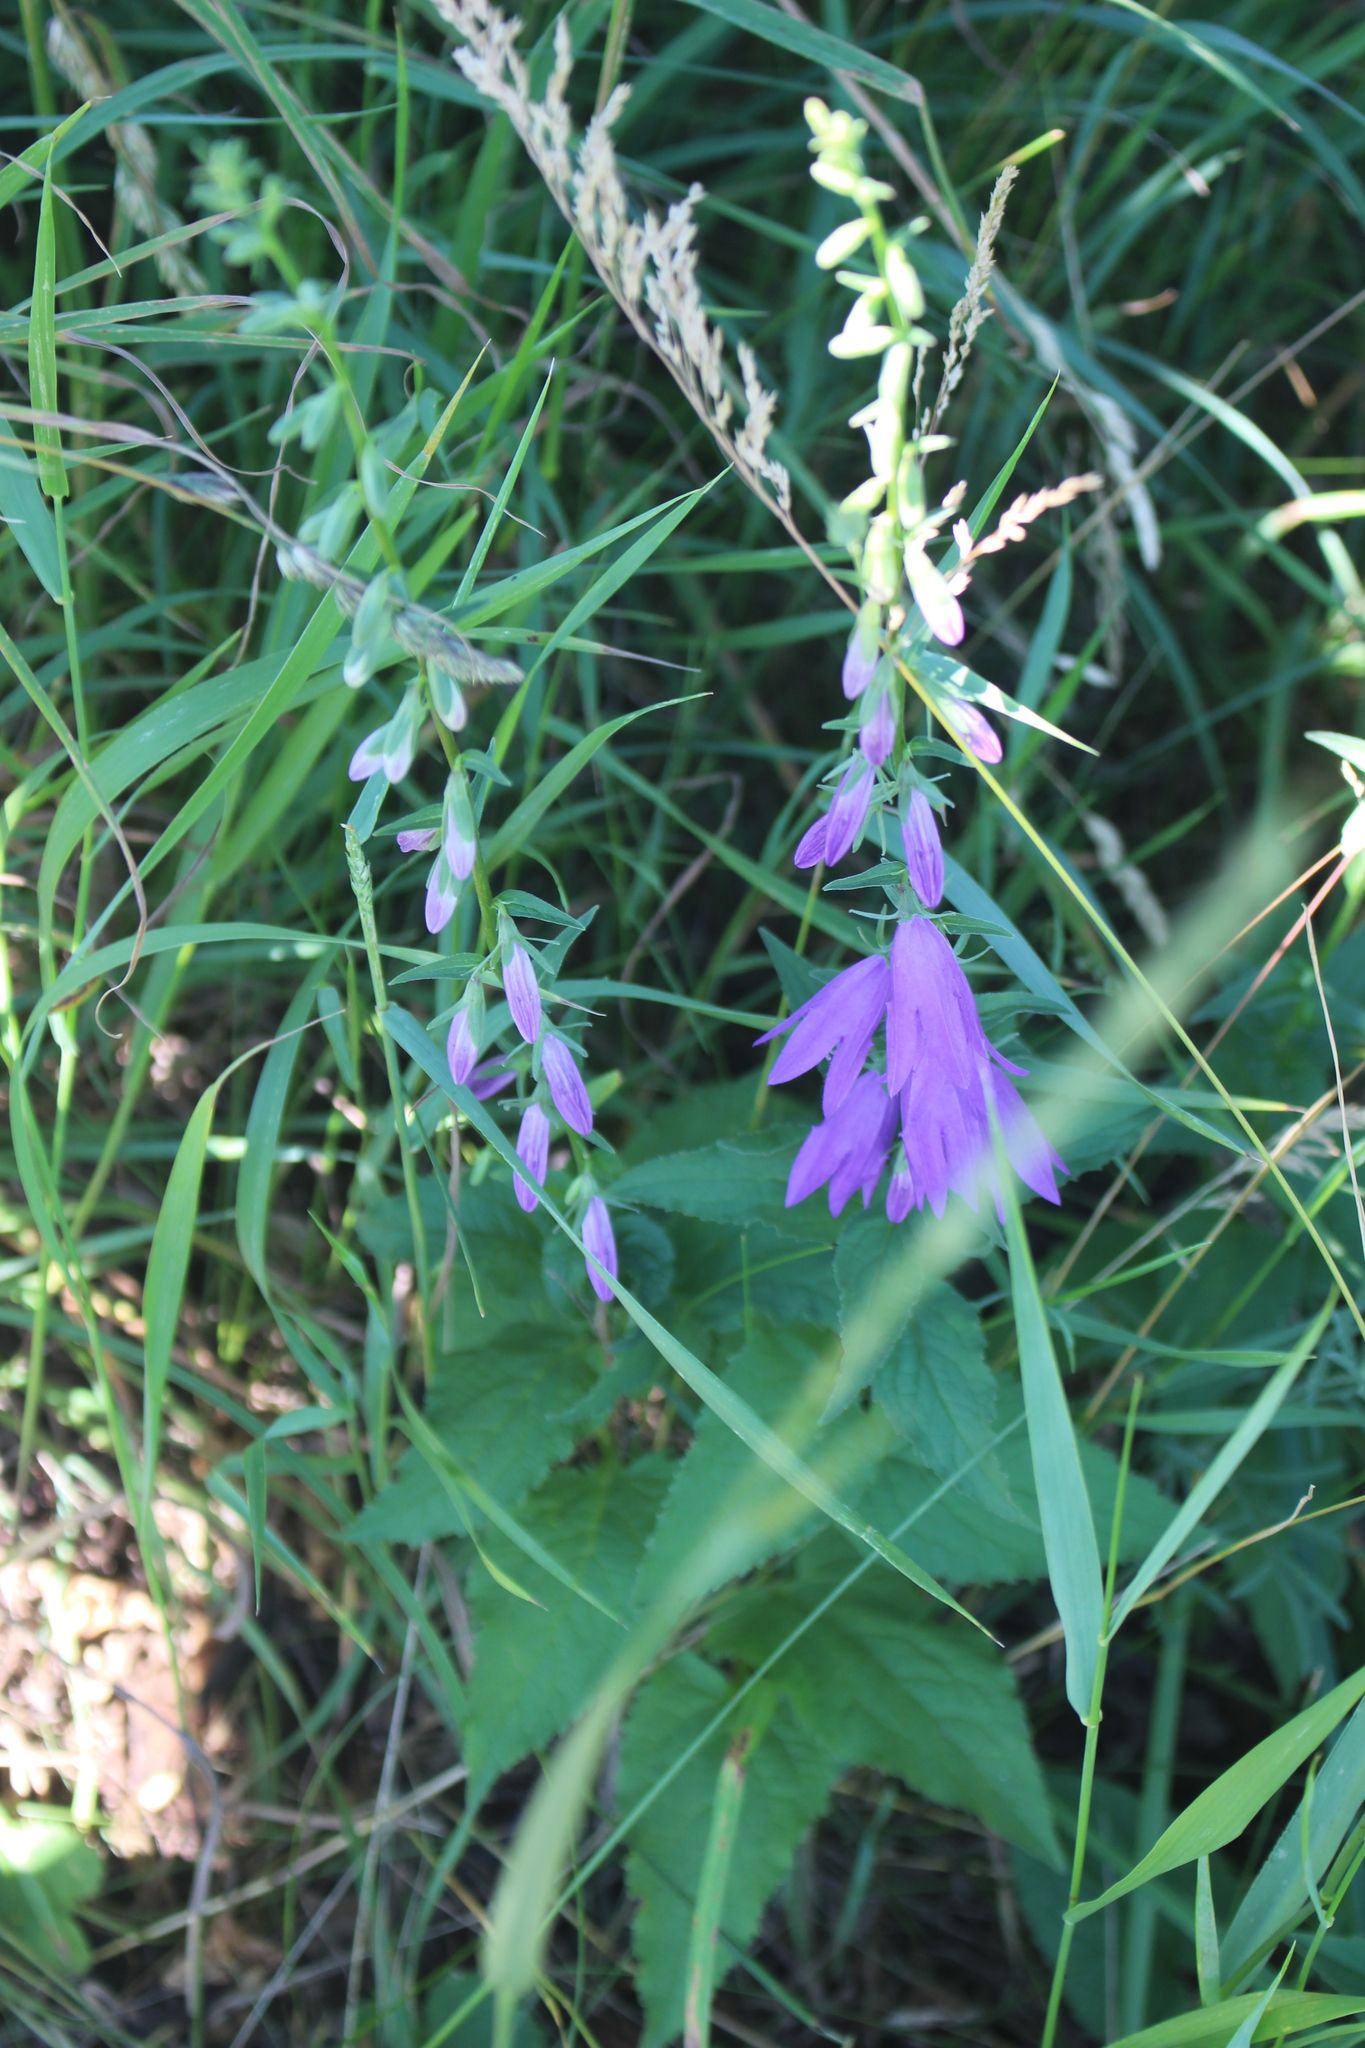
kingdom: Plantae
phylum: Tracheophyta
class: Magnoliopsida
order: Asterales
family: Campanulaceae
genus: Campanula
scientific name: Campanula rapunculoides
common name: Creeping bellflower
